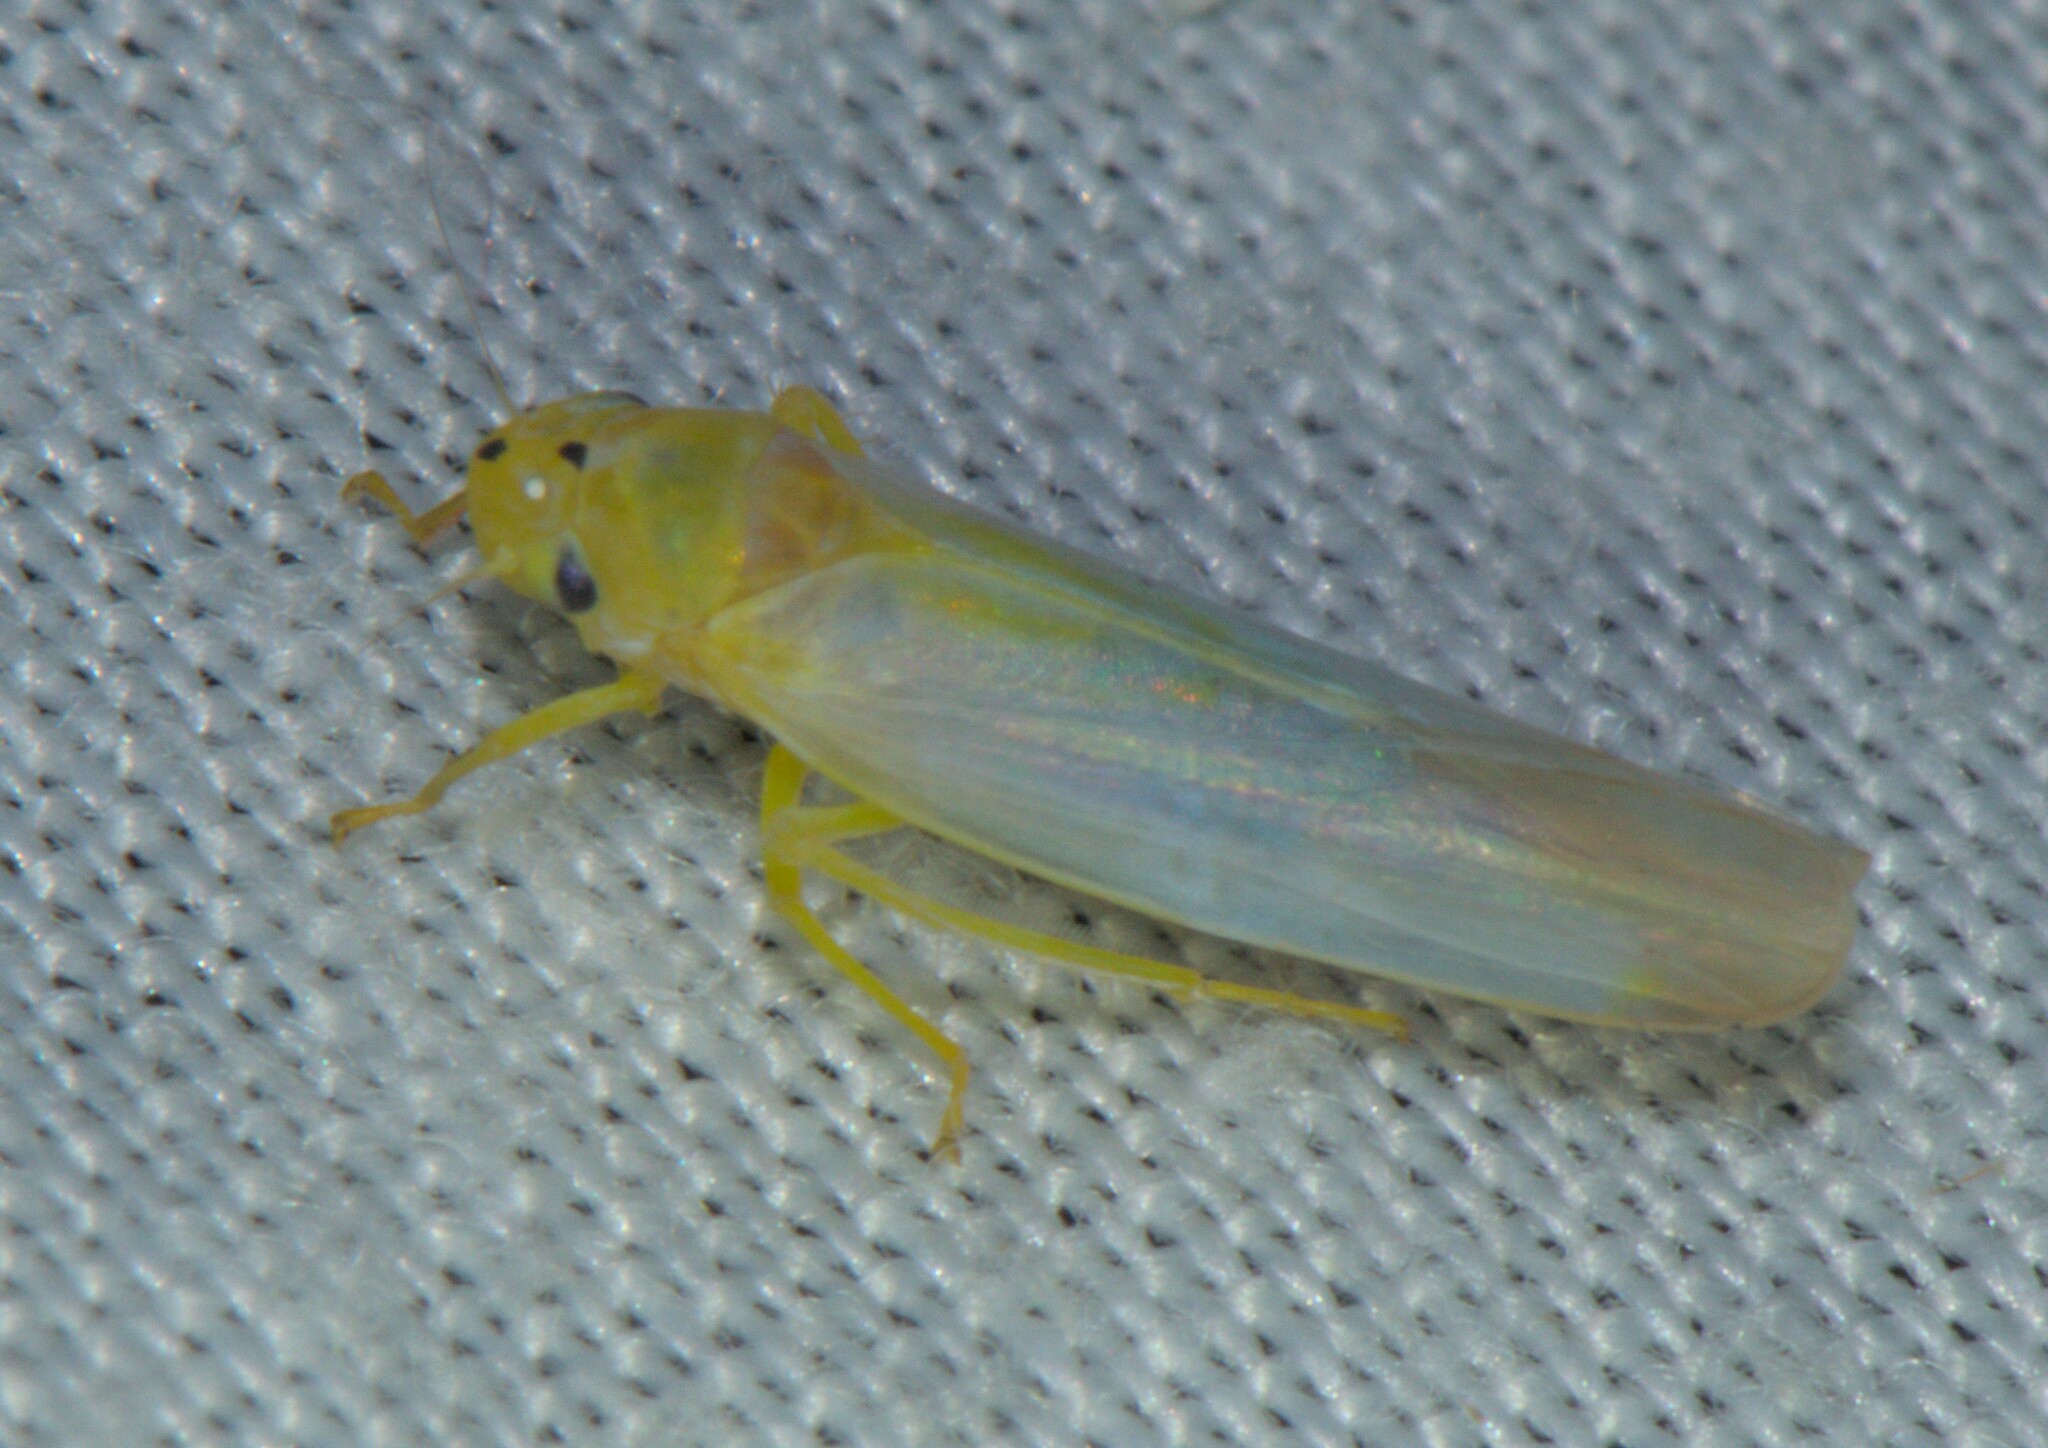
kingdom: Animalia
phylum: Arthropoda
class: Insecta
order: Hemiptera
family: Cicadellidae
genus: Atkinsoniella
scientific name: Atkinsoniella thalia
